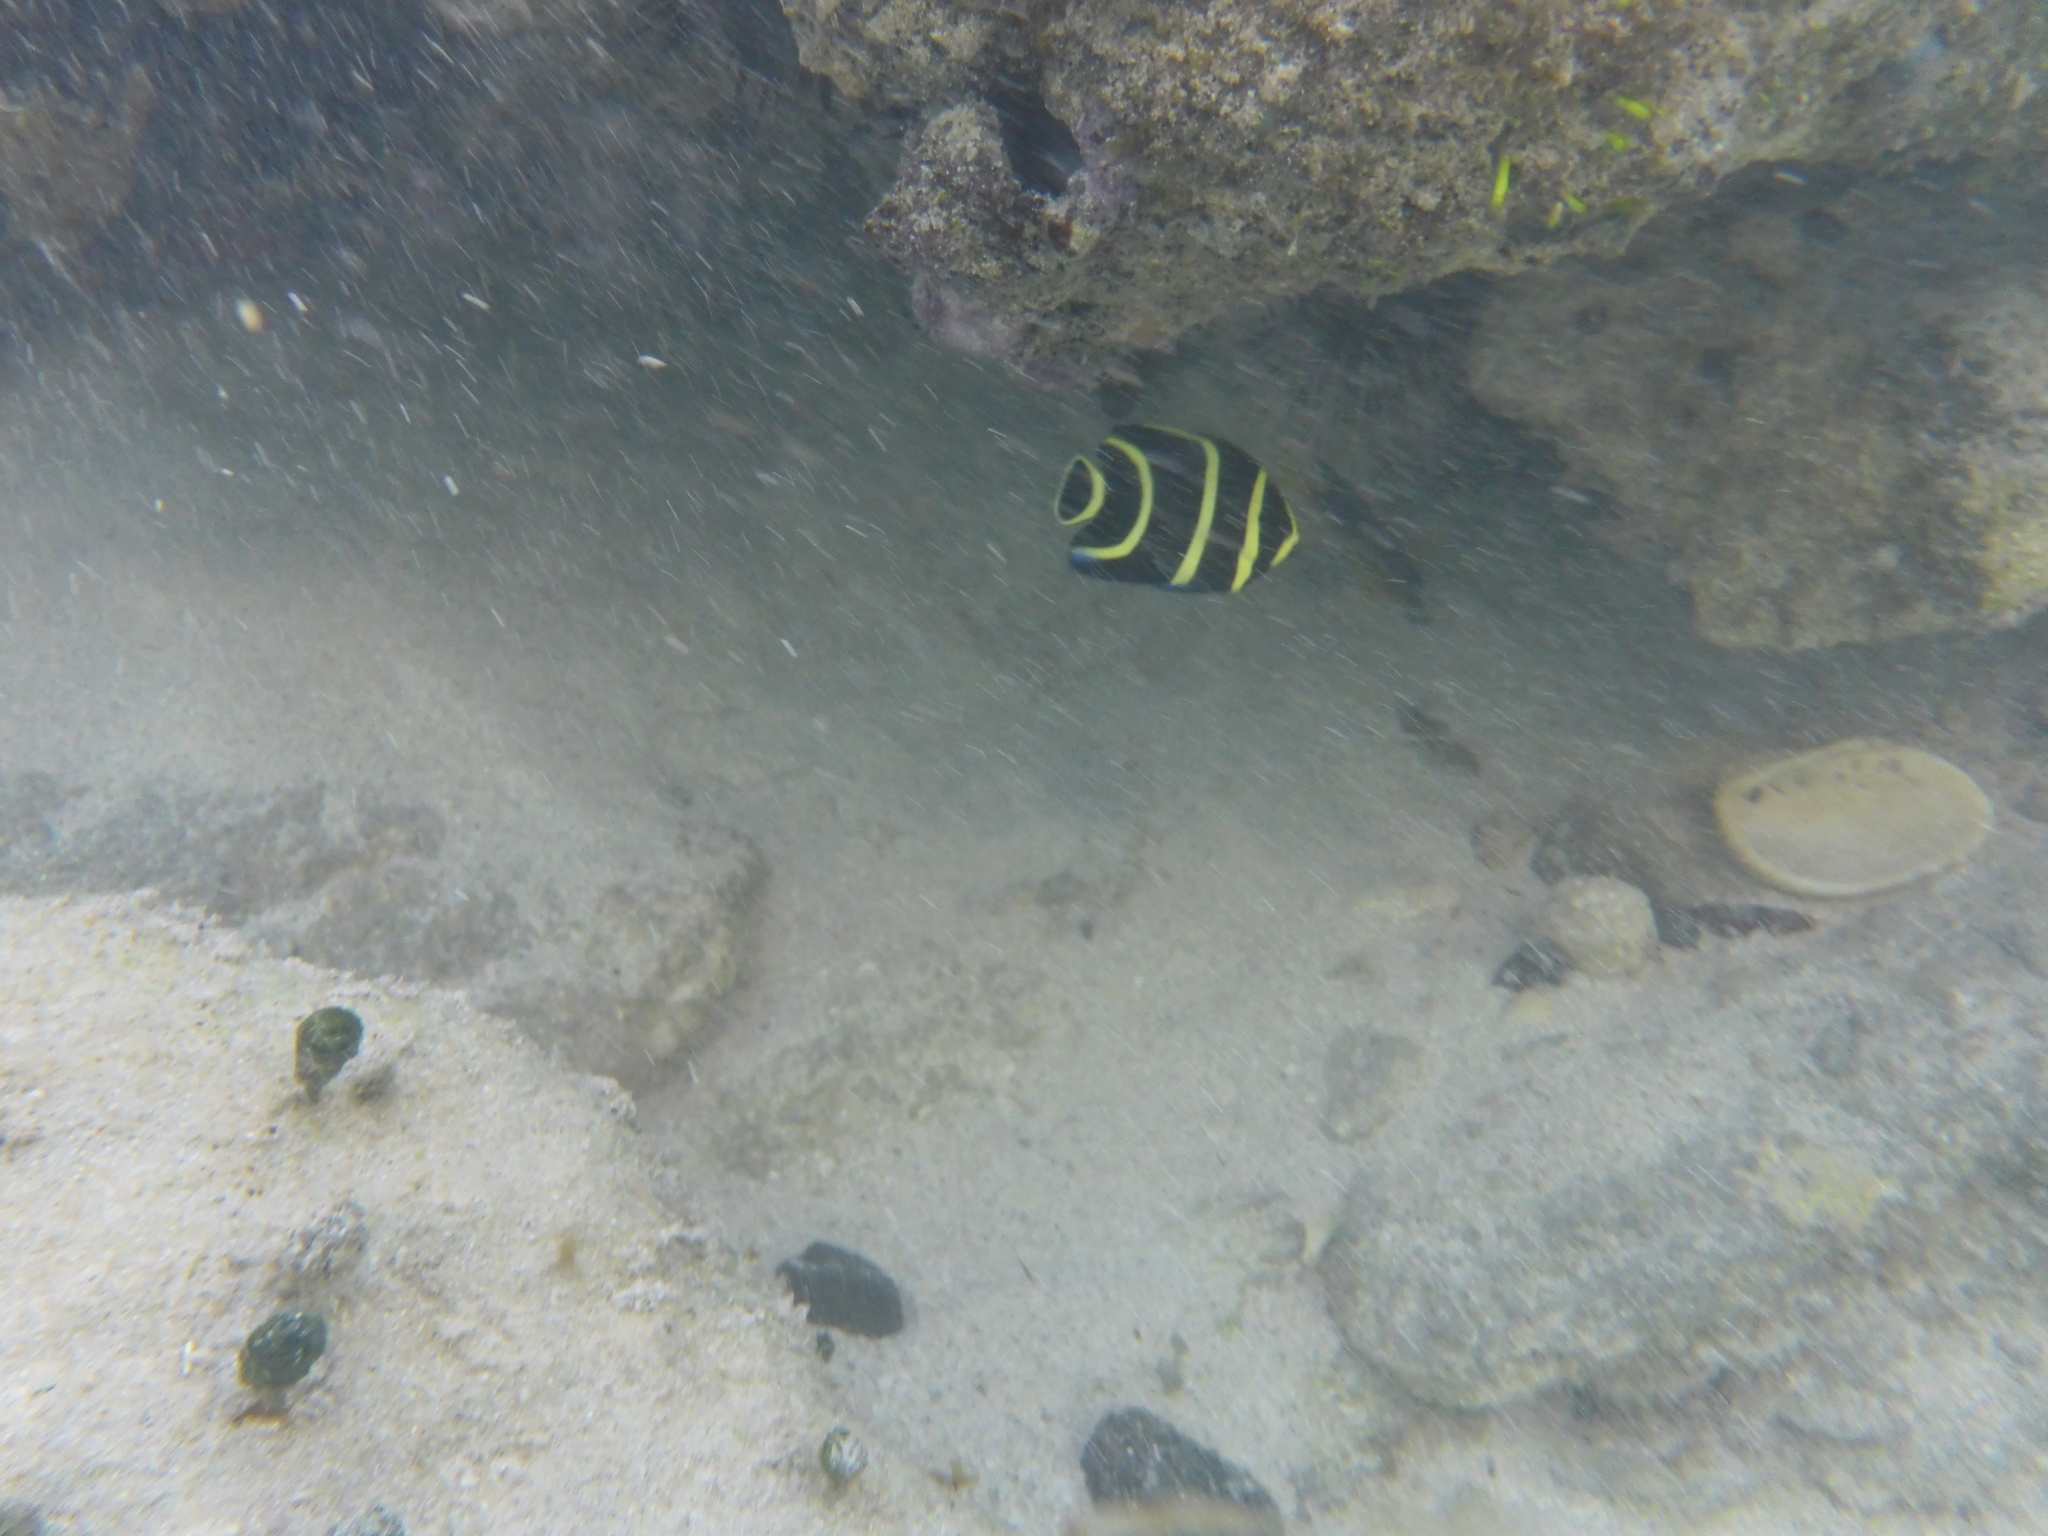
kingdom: Animalia
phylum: Chordata
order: Perciformes
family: Pomacanthidae
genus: Pomacanthus
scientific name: Pomacanthus paru
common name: French angelfish
